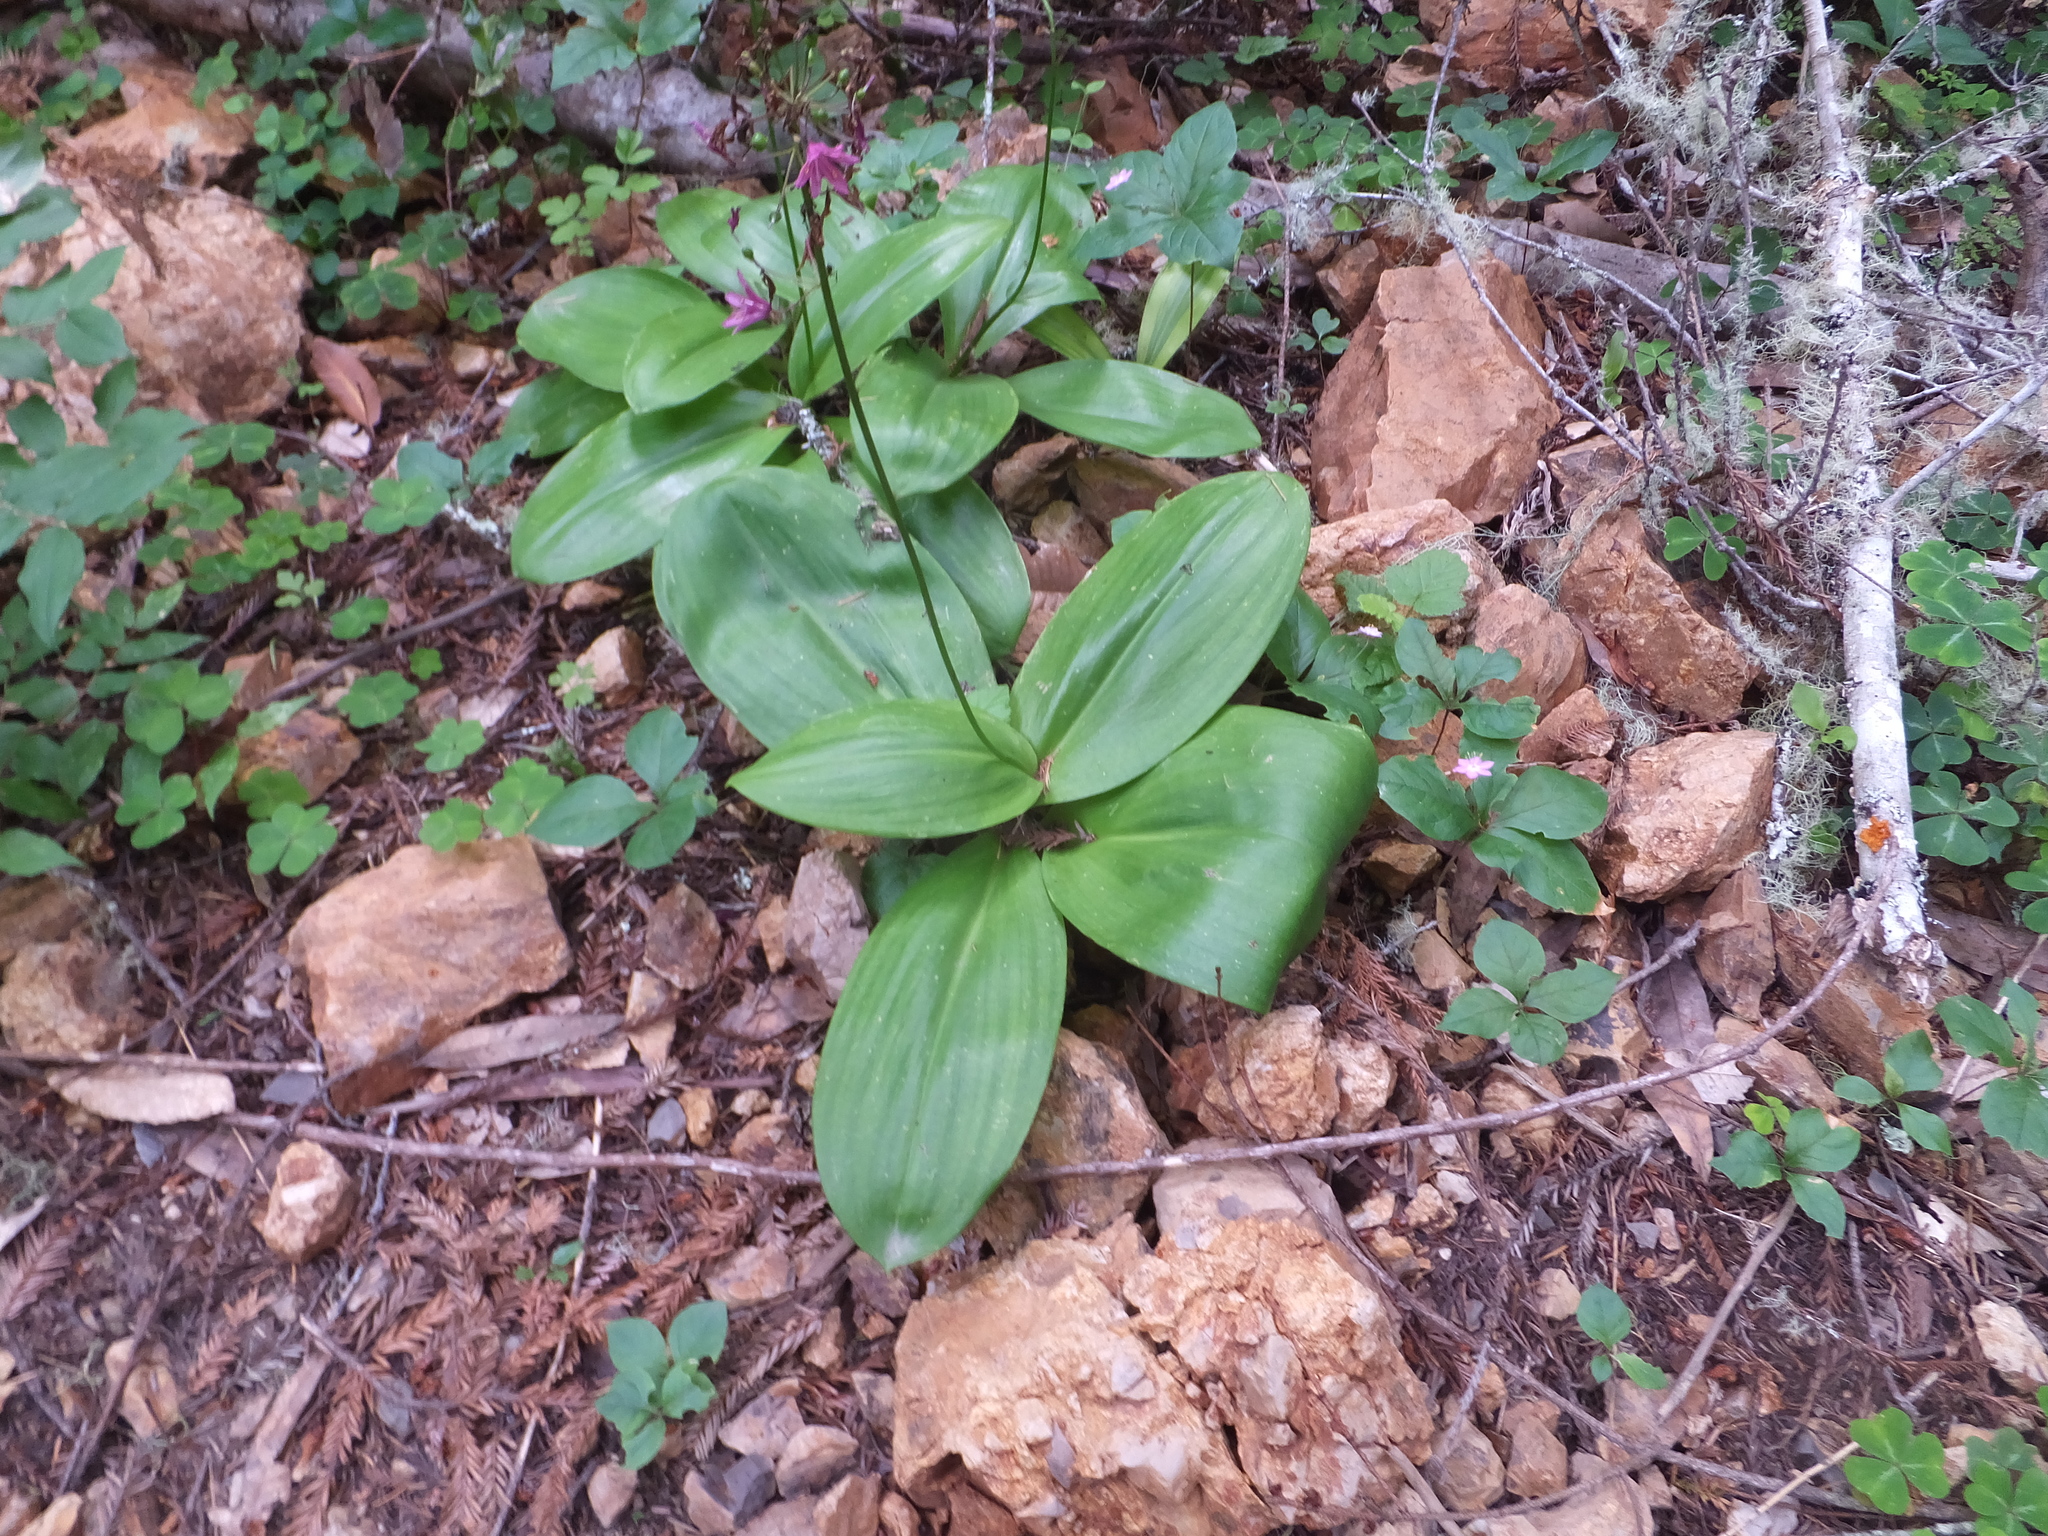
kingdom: Plantae
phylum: Tracheophyta
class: Liliopsida
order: Liliales
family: Liliaceae
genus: Clintonia
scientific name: Clintonia andrewsiana
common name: Red clintonia
